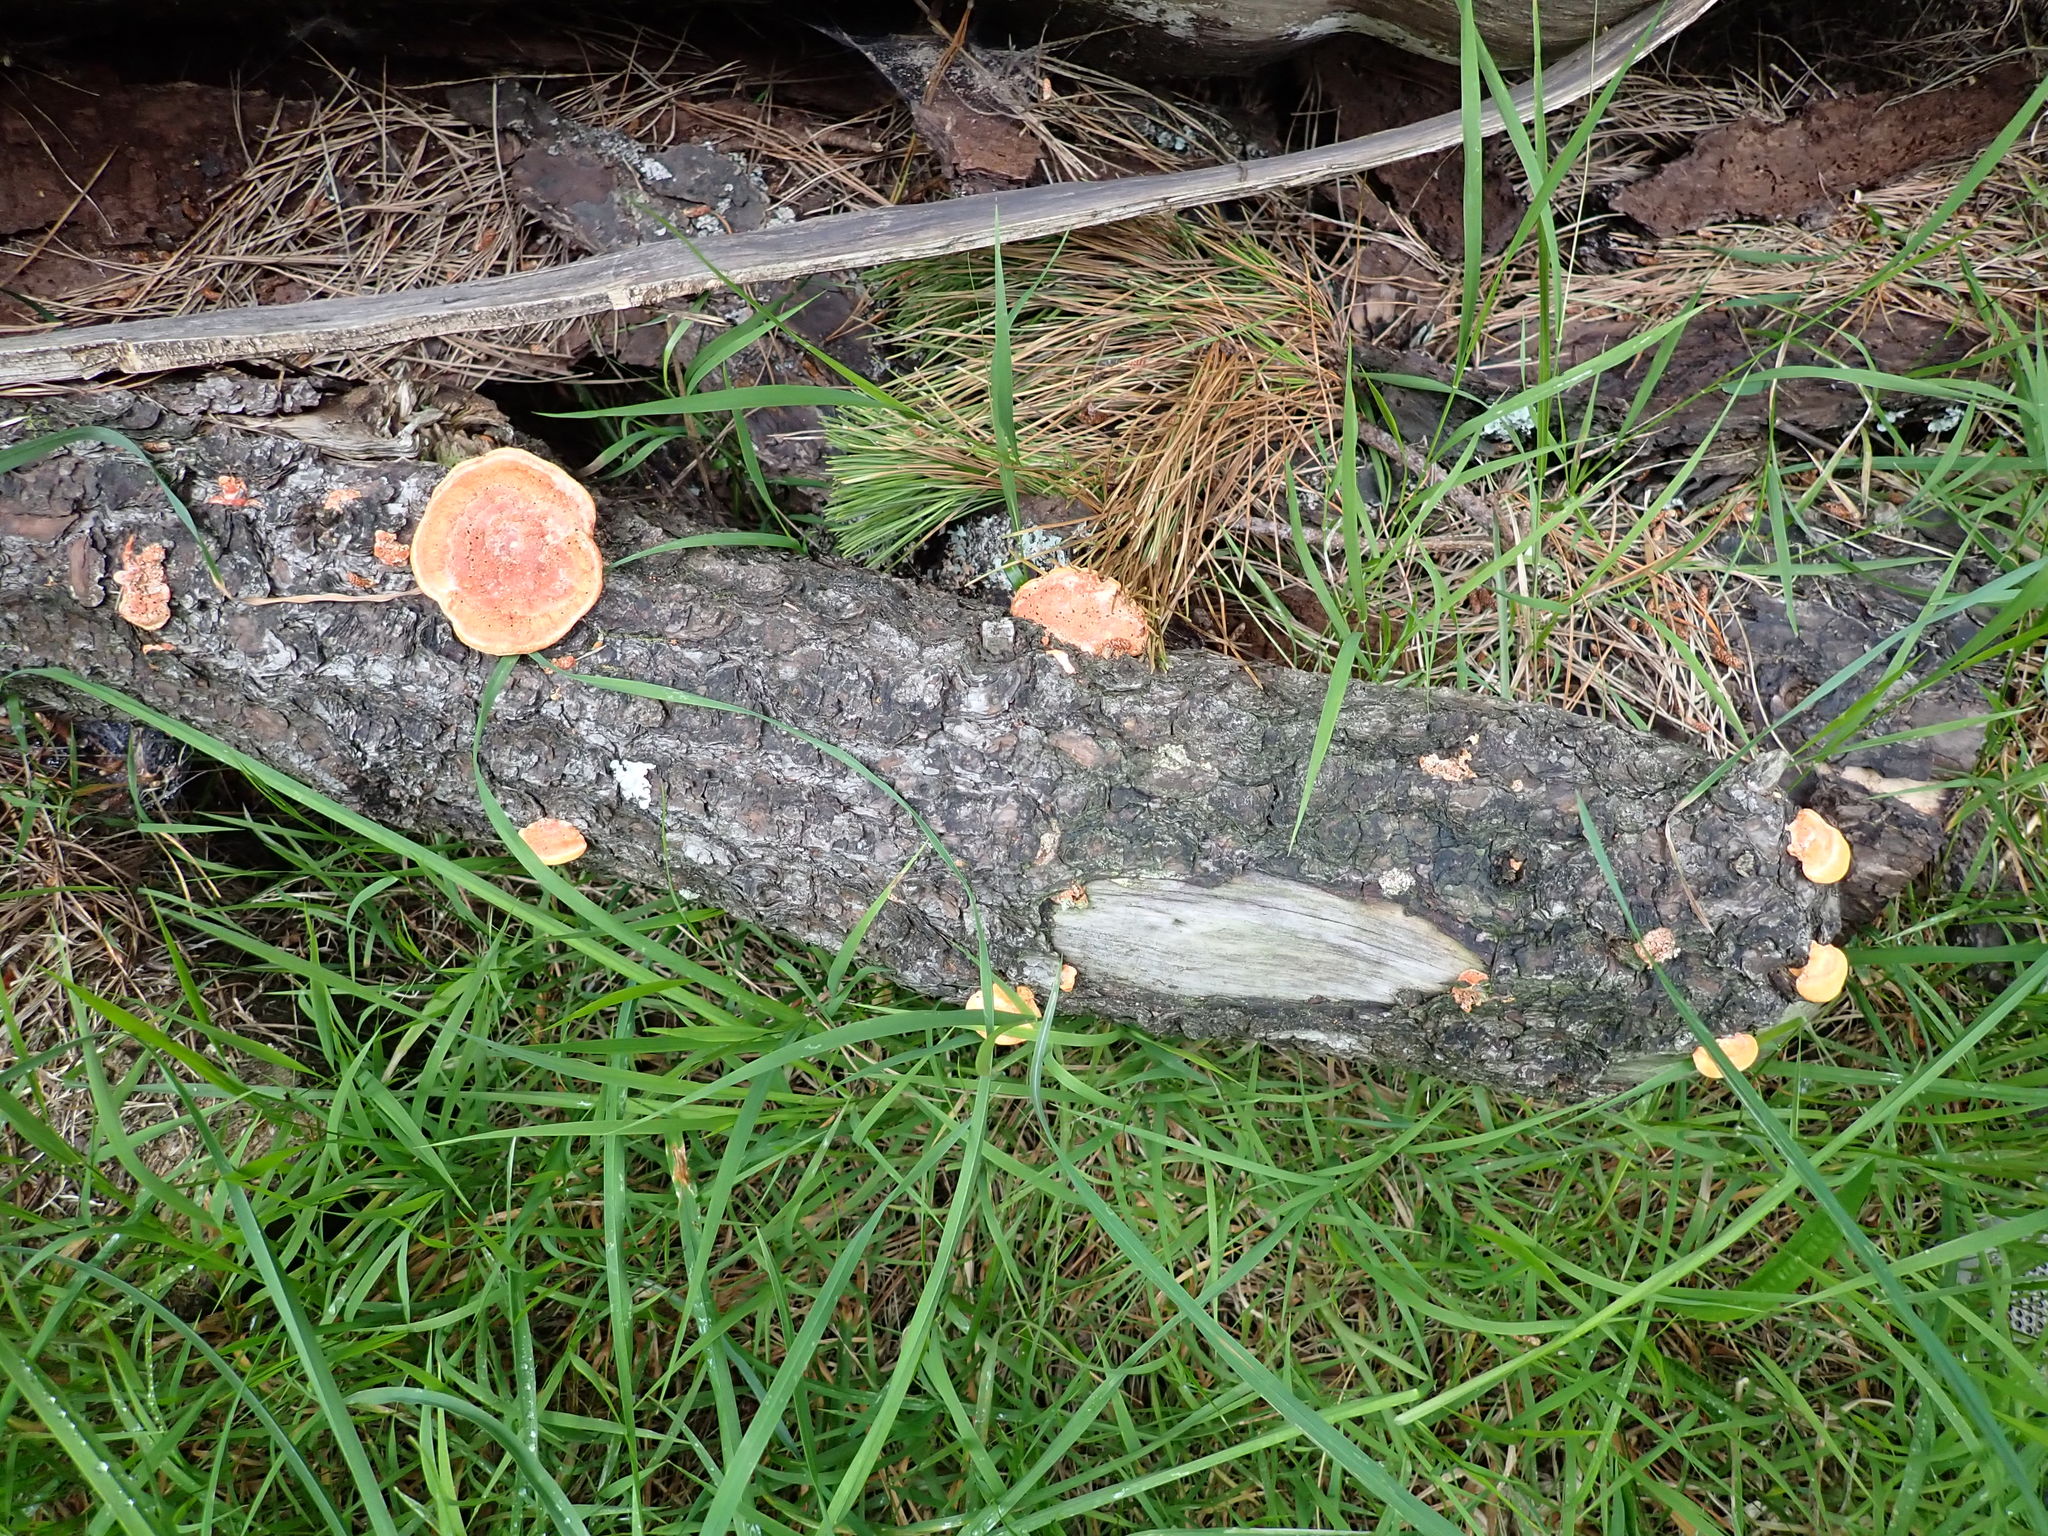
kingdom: Fungi
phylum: Basidiomycota
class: Agaricomycetes
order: Polyporales
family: Polyporaceae
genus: Trametes
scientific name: Trametes coccinea
